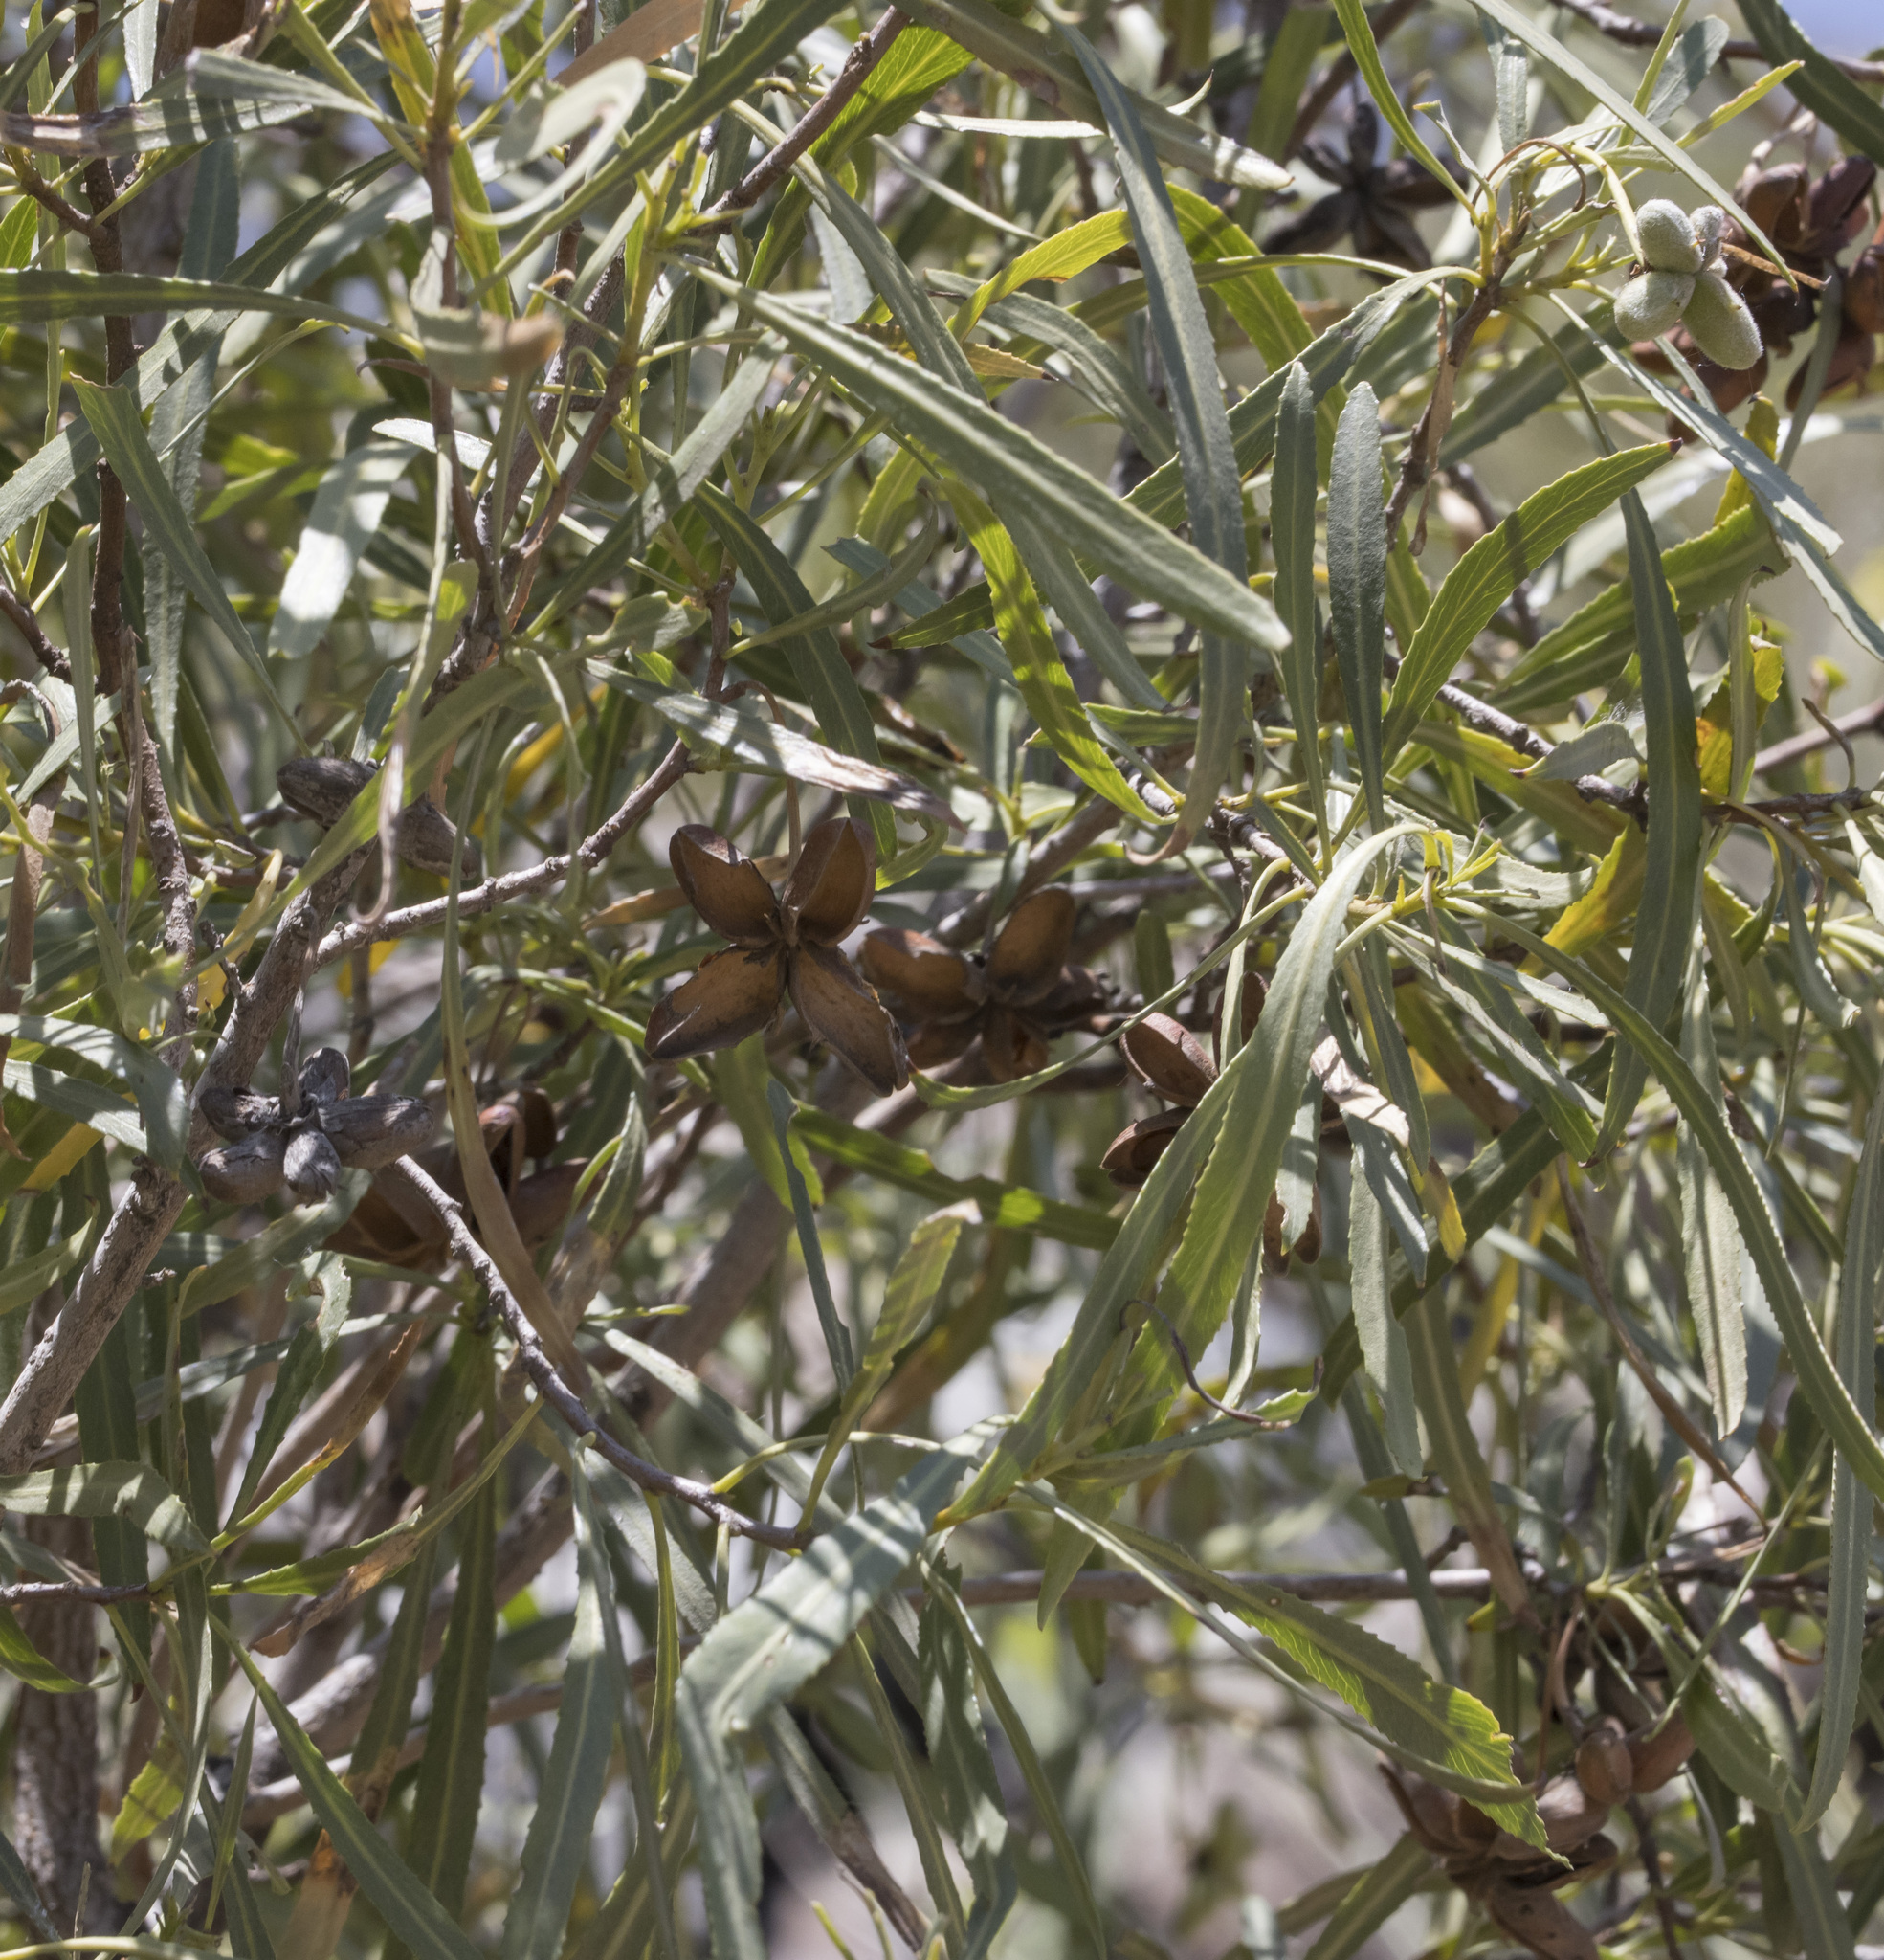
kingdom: Plantae
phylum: Tracheophyta
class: Magnoliopsida
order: Rosales
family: Rosaceae
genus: Kageneckia
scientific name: Kageneckia angustifolia
